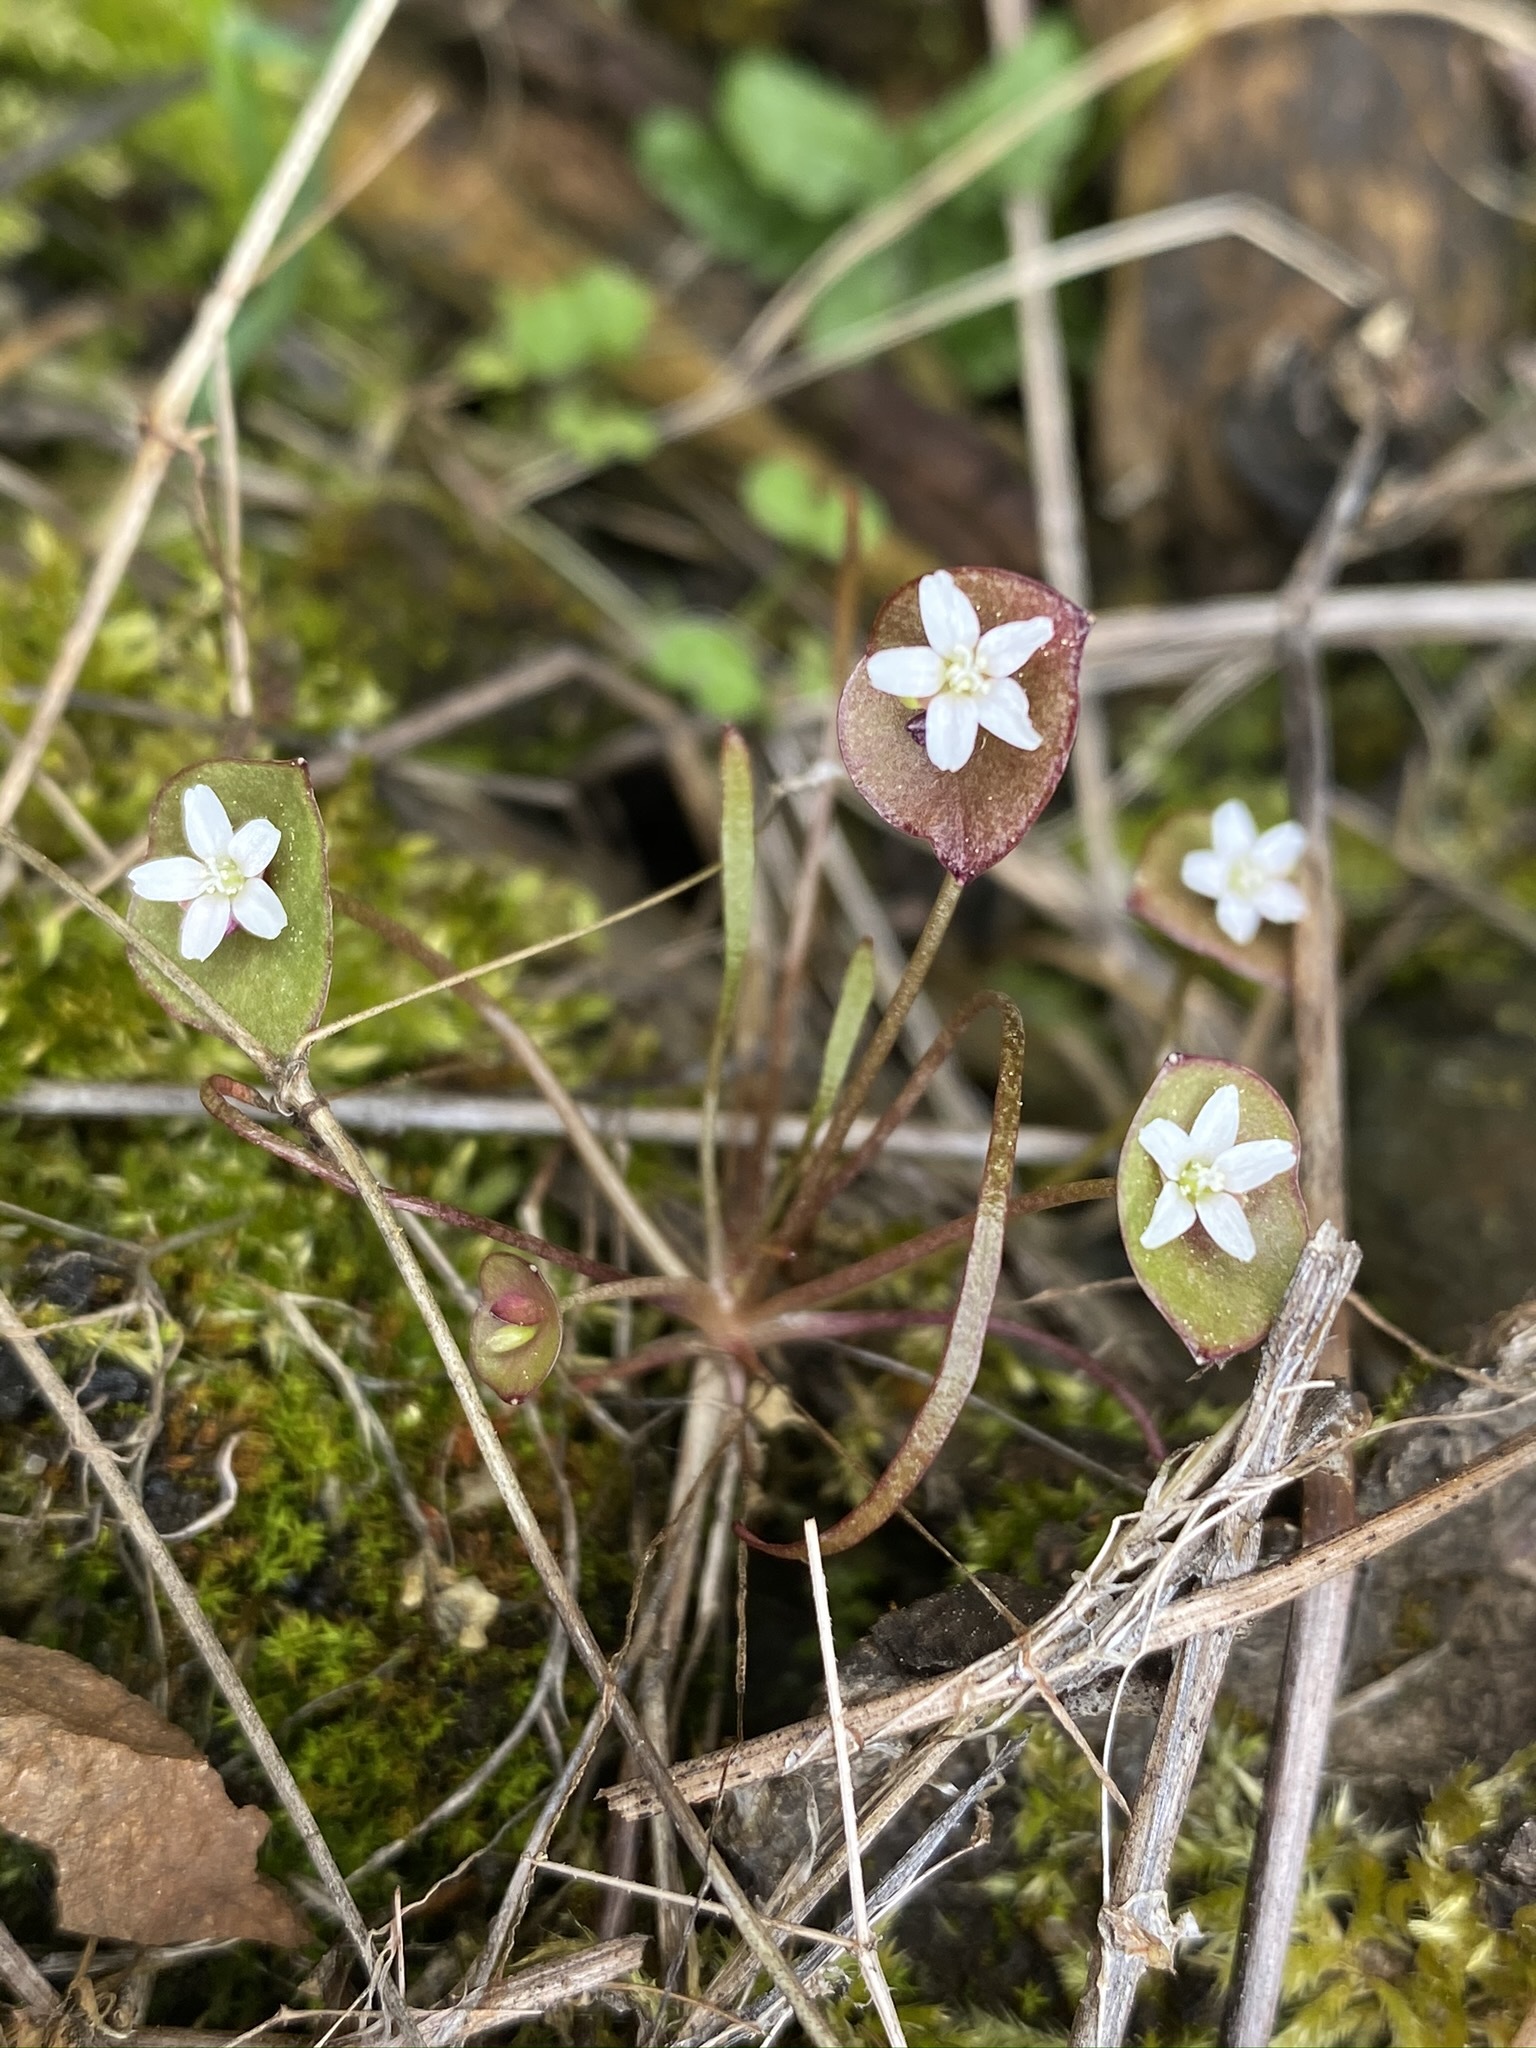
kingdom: Plantae
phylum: Tracheophyta
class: Magnoliopsida
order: Caryophyllales
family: Montiaceae
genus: Claytonia
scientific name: Claytonia parviflora
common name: Indian-lettuce
